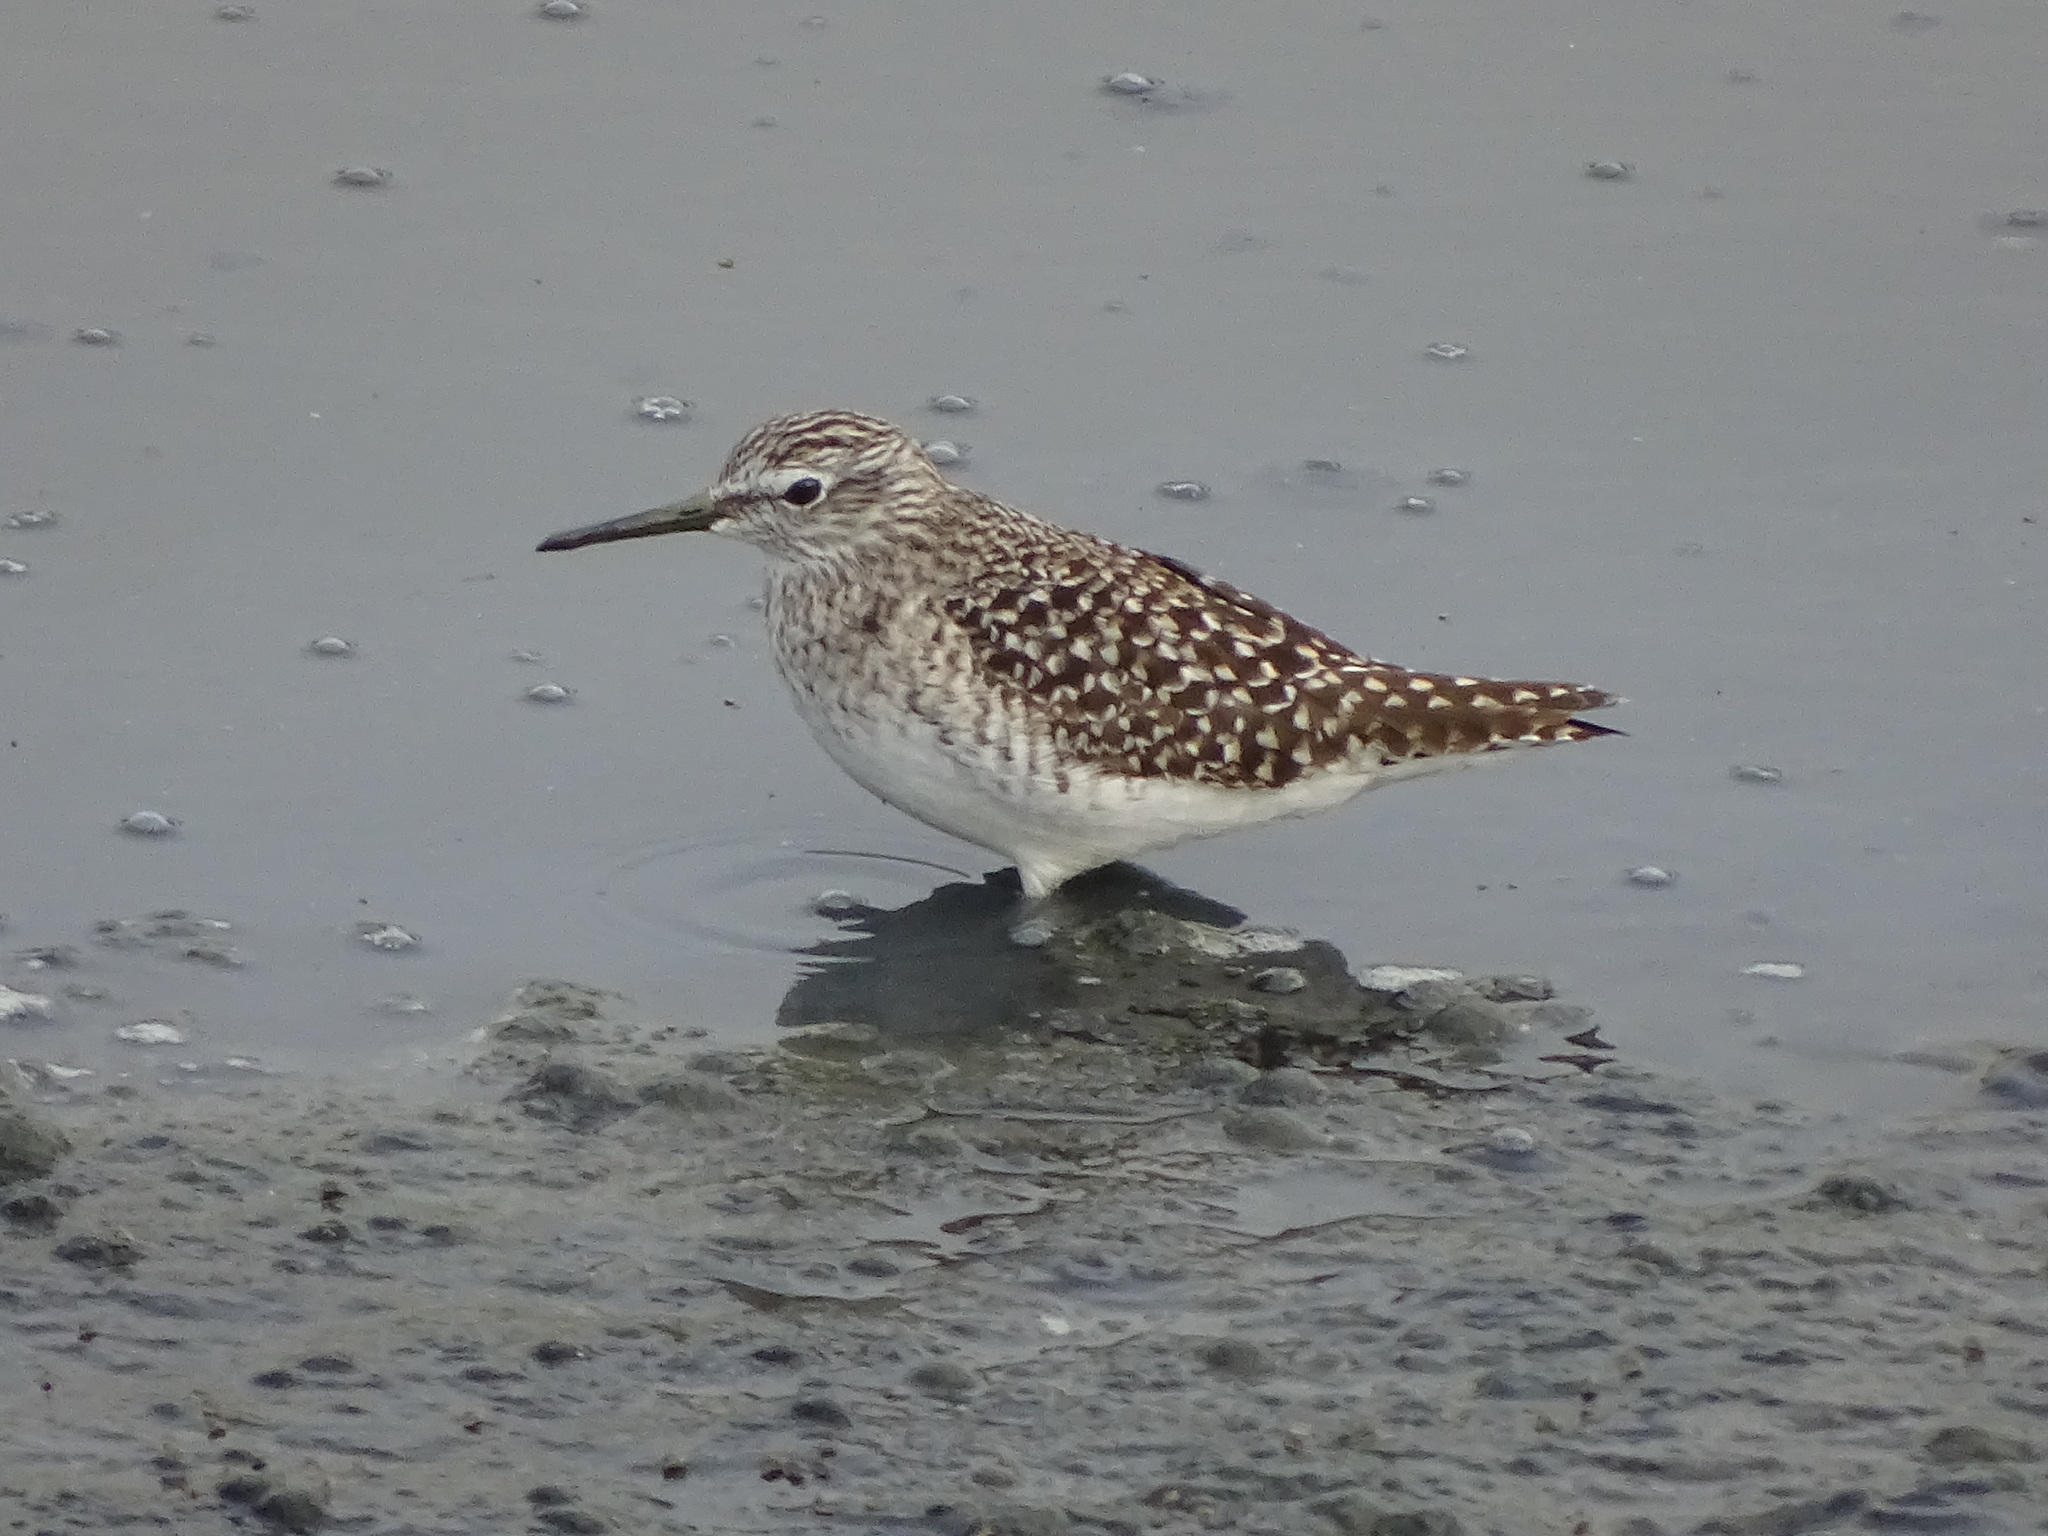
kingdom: Animalia
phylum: Chordata
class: Aves
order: Charadriiformes
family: Scolopacidae
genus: Tringa
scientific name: Tringa glareola
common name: Wood sandpiper
